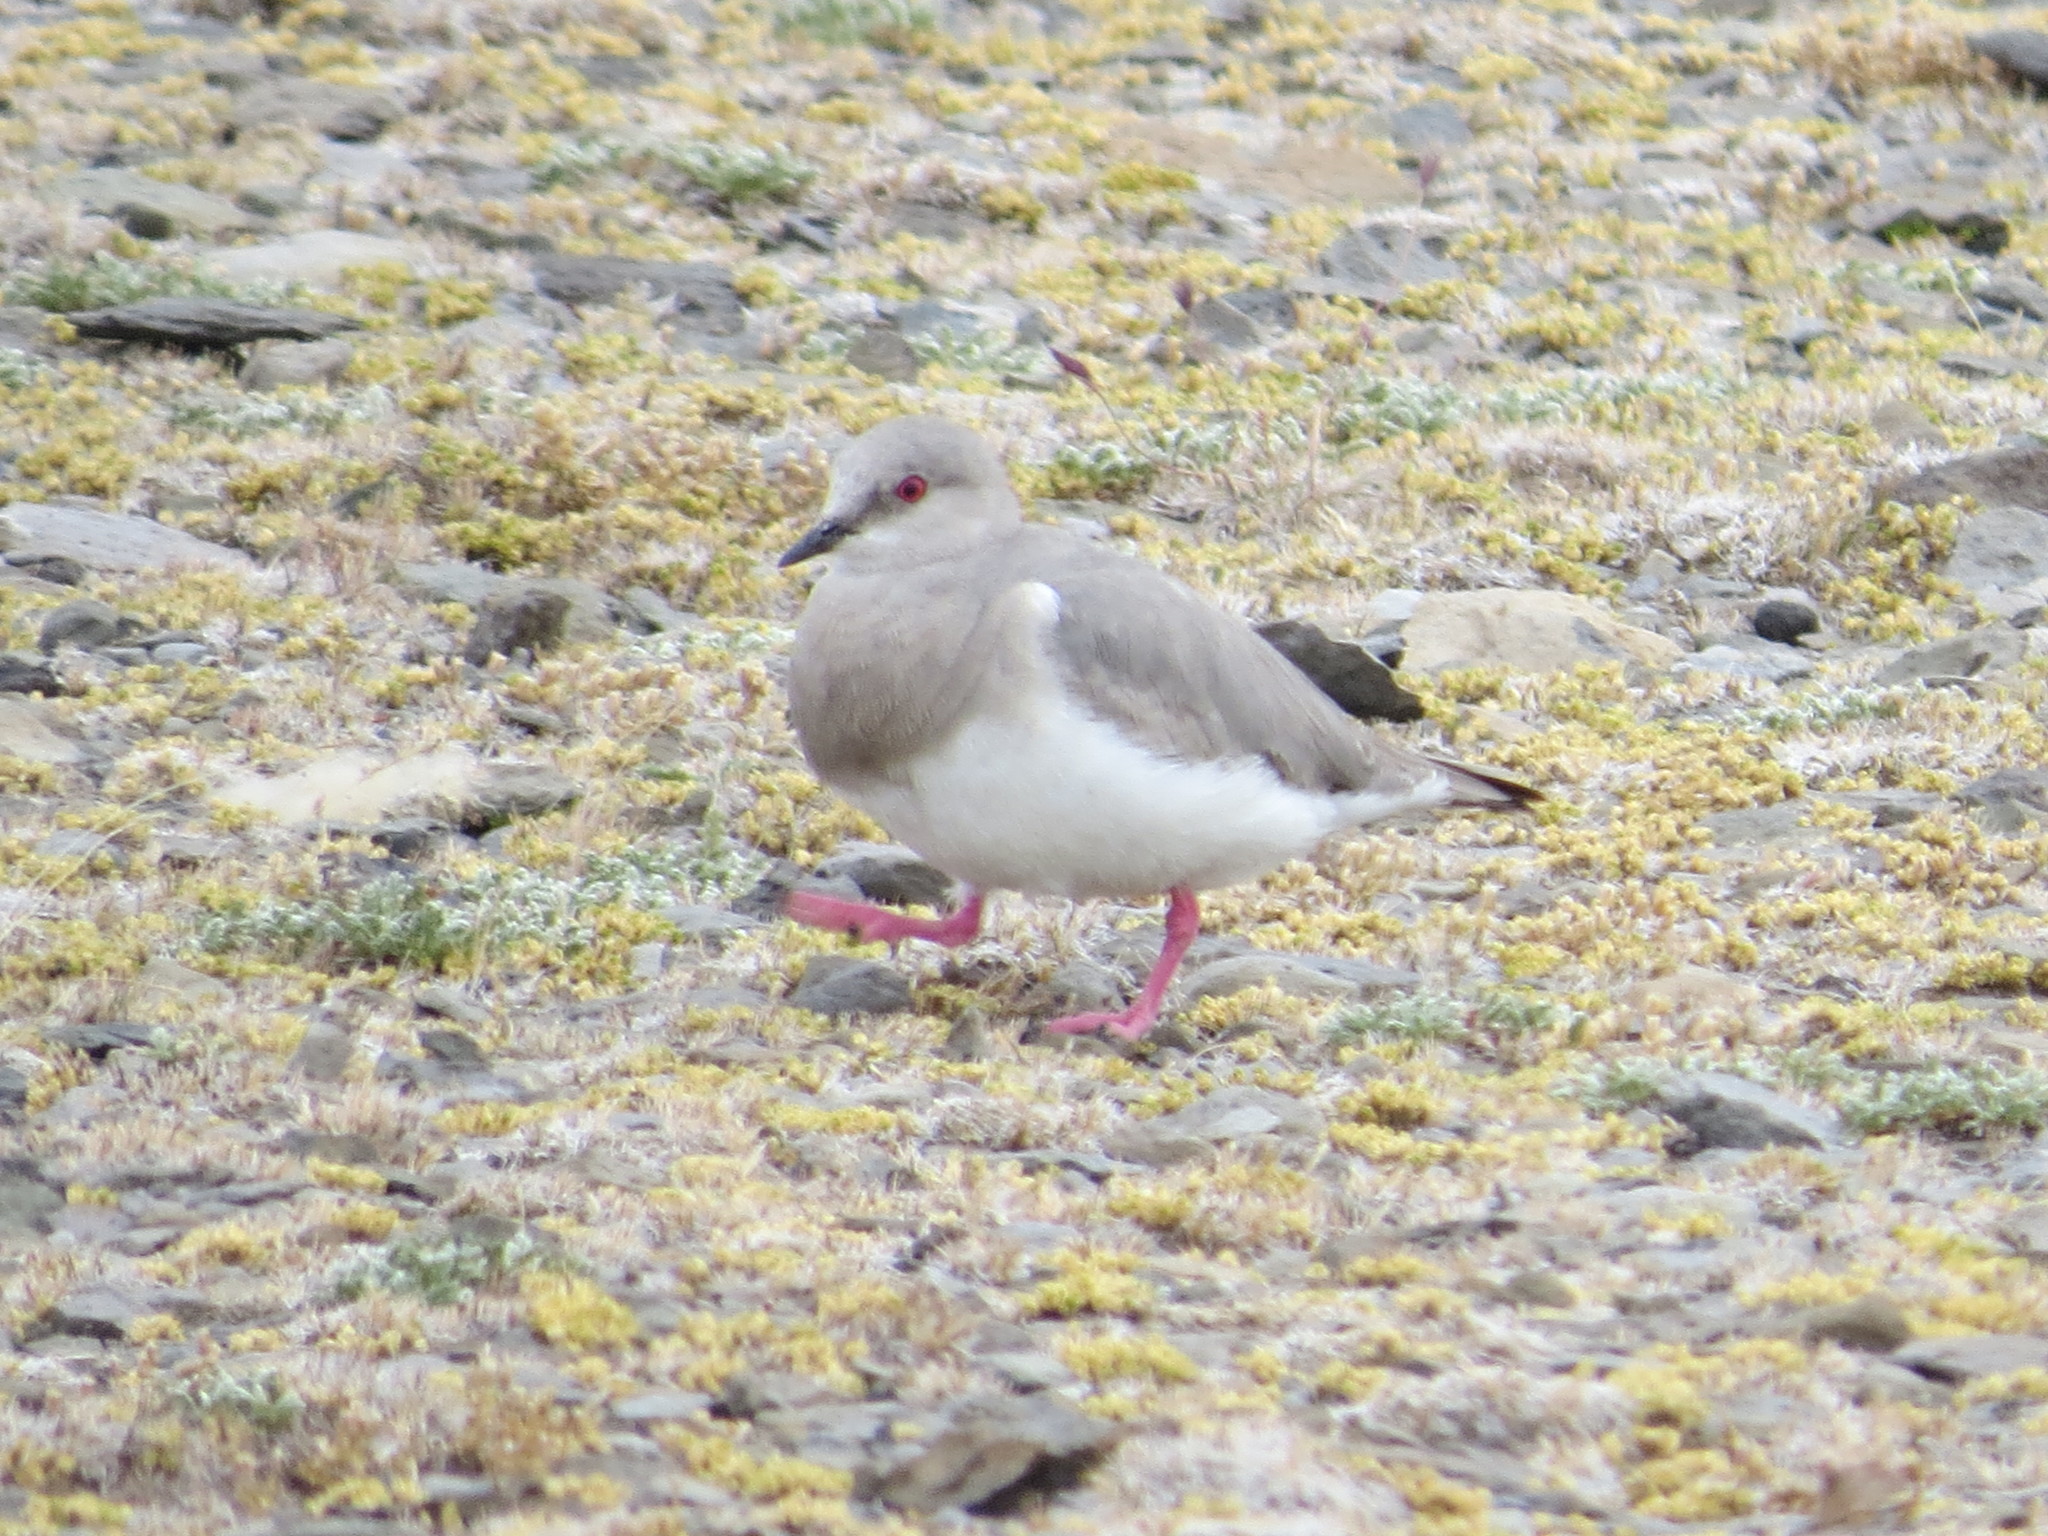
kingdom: Animalia
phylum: Chordata
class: Aves
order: Charadriiformes
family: Pluvianellidae
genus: Pluvianellus
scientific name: Pluvianellus socialis
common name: Magellanic plover
